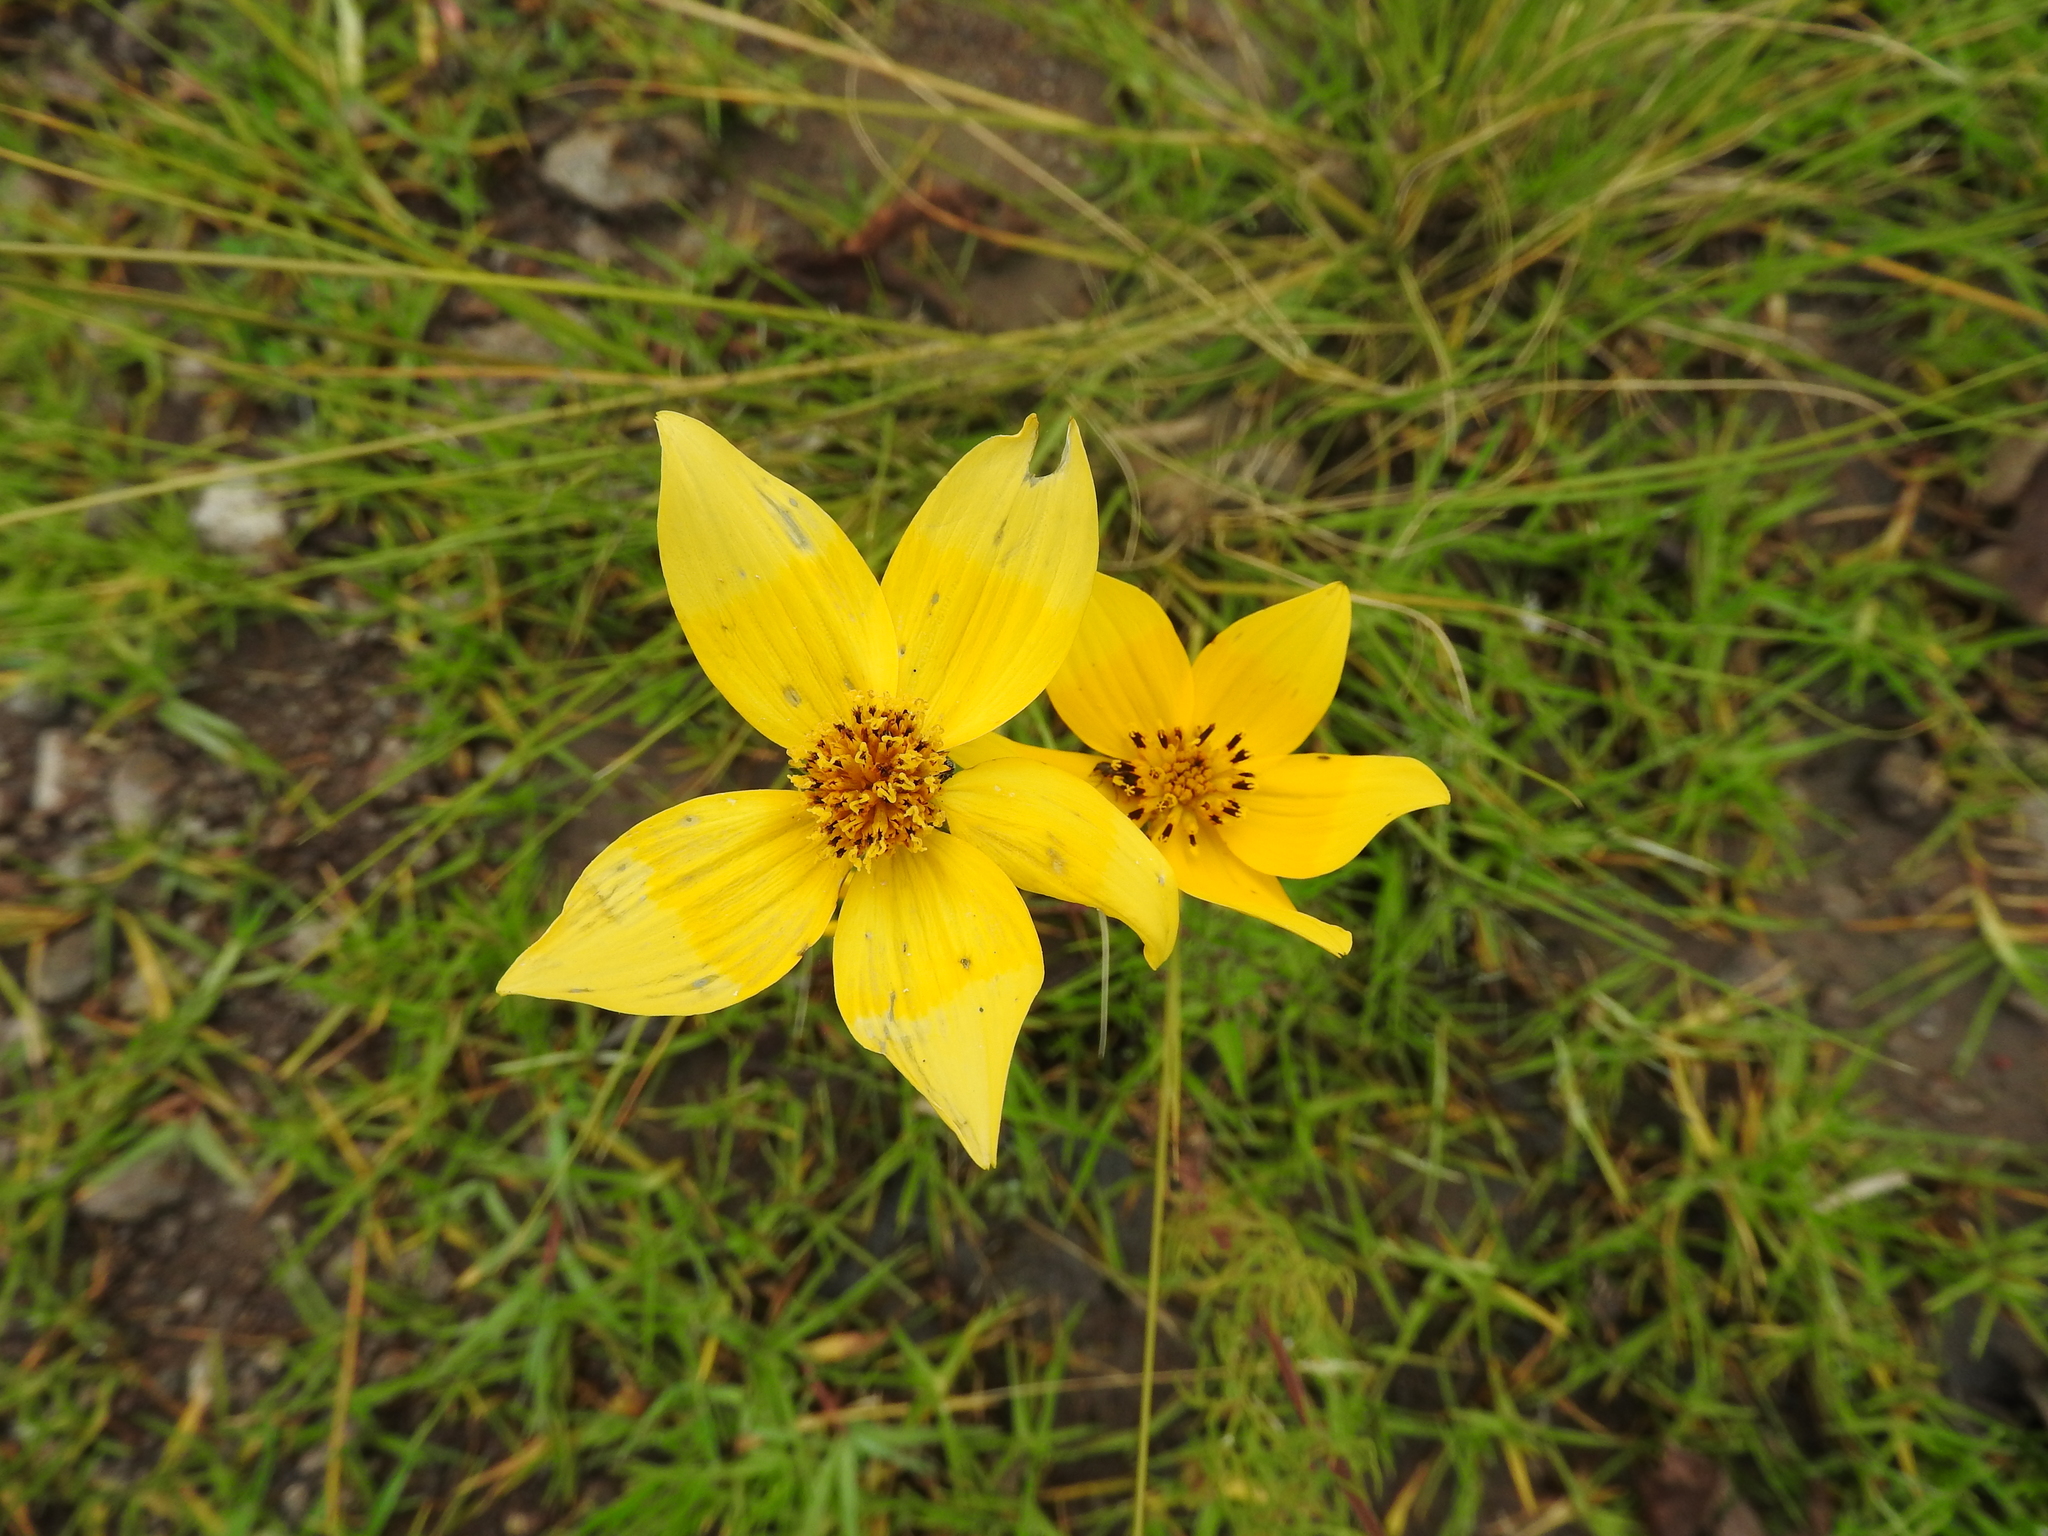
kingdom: Plantae
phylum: Tracheophyta
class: Magnoliopsida
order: Asterales
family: Asteraceae
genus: Bidens
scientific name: Bidens laevis
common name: Larger bur-marigold
